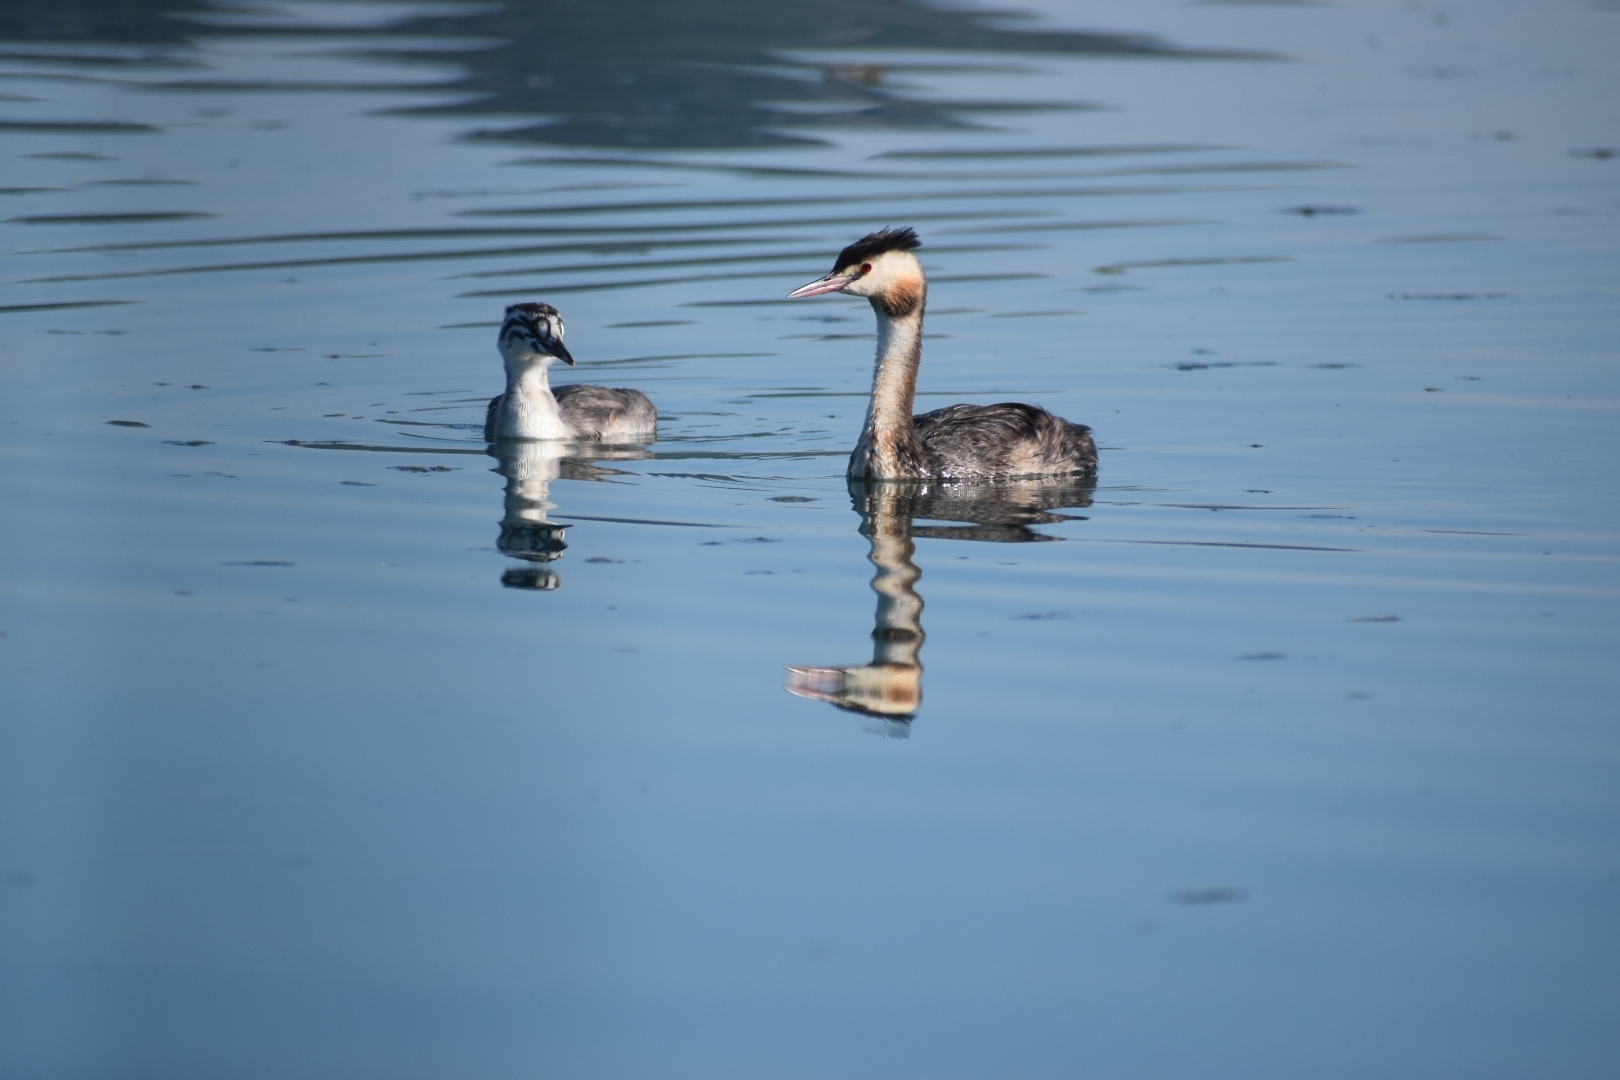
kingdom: Animalia
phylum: Chordata
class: Aves
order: Podicipediformes
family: Podicipedidae
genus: Podiceps
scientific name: Podiceps cristatus
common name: Great crested grebe
